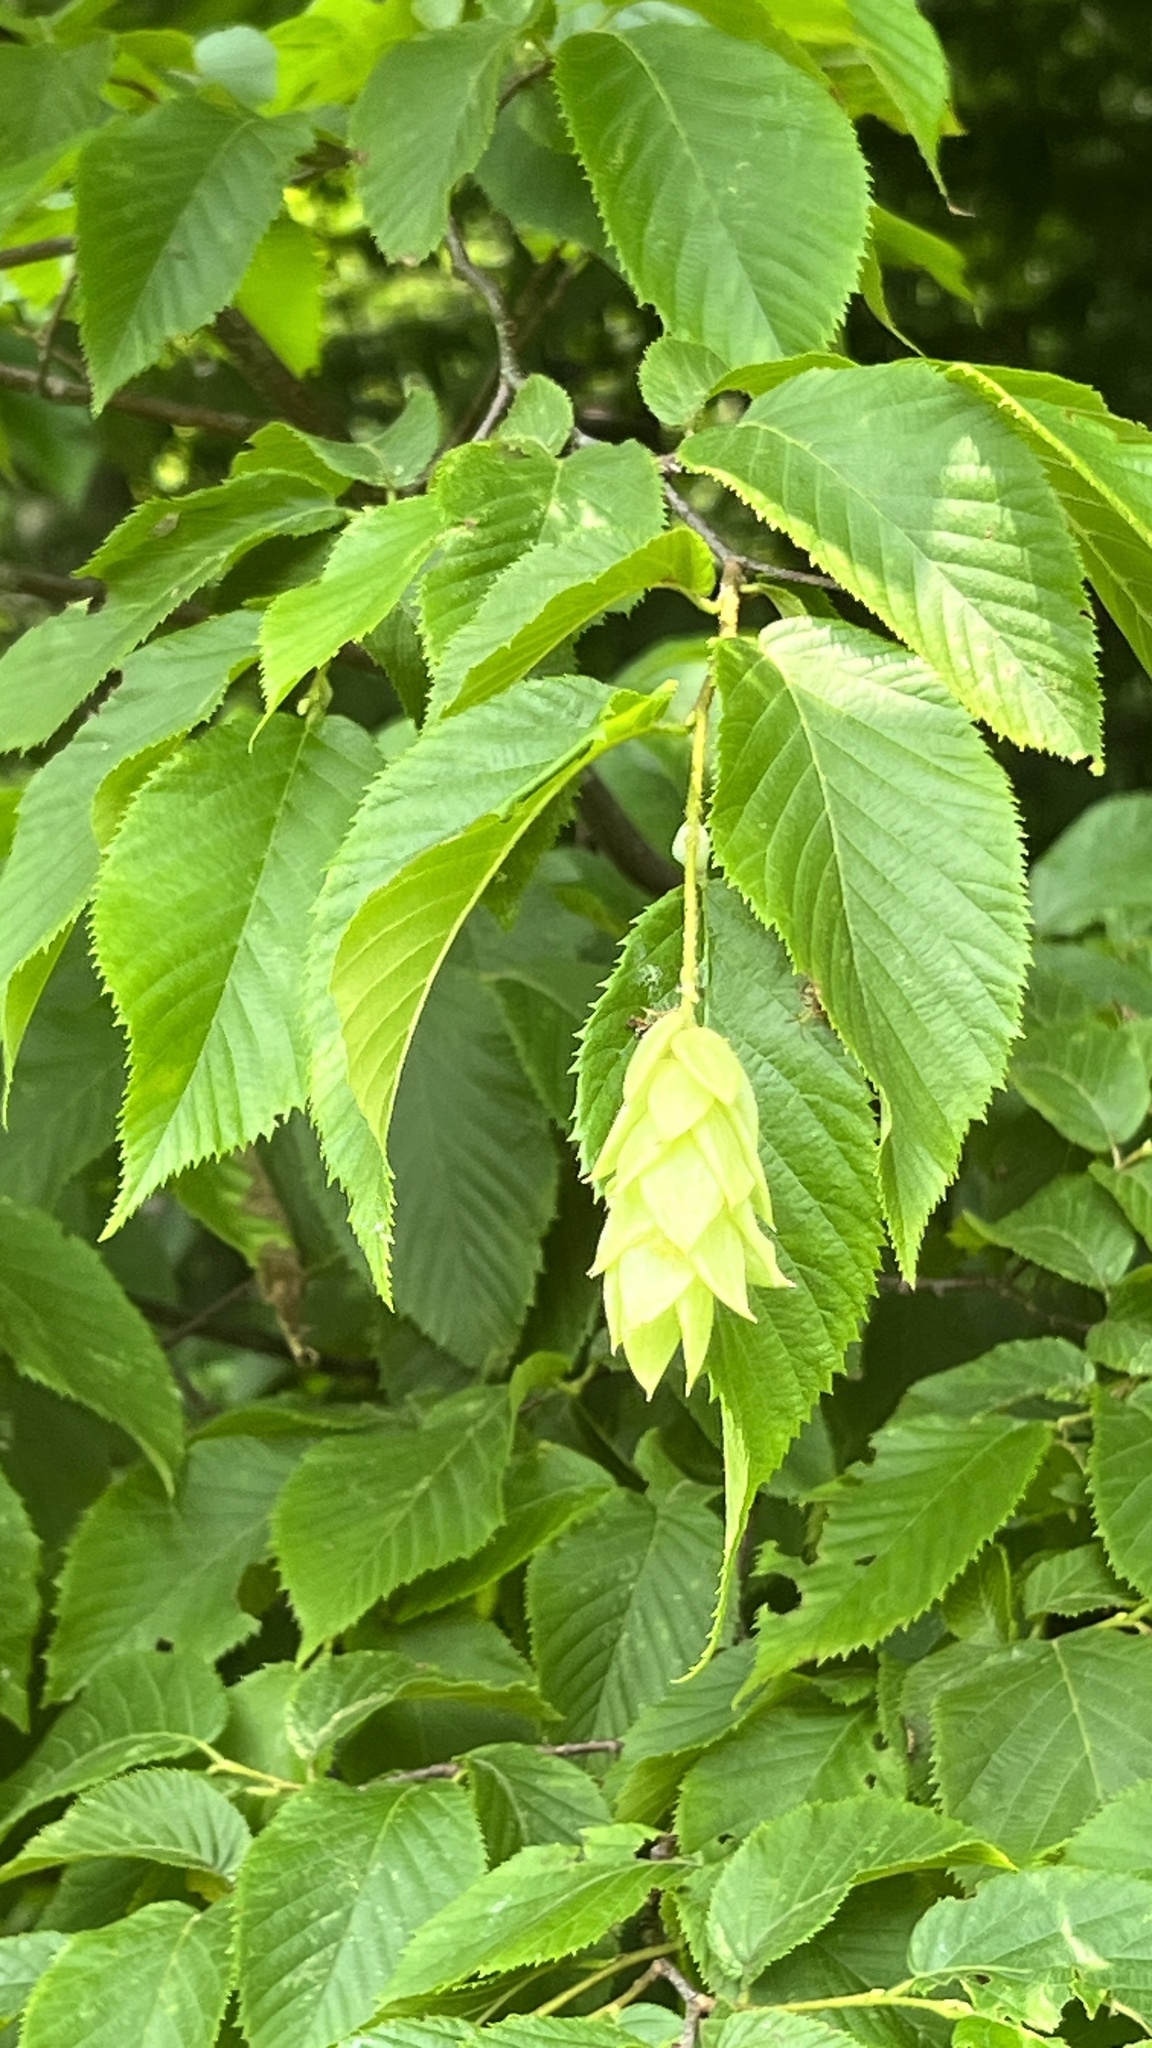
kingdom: Plantae
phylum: Tracheophyta
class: Magnoliopsida
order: Fagales
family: Betulaceae
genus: Ostrya
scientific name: Ostrya virginiana
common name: Ironwood
